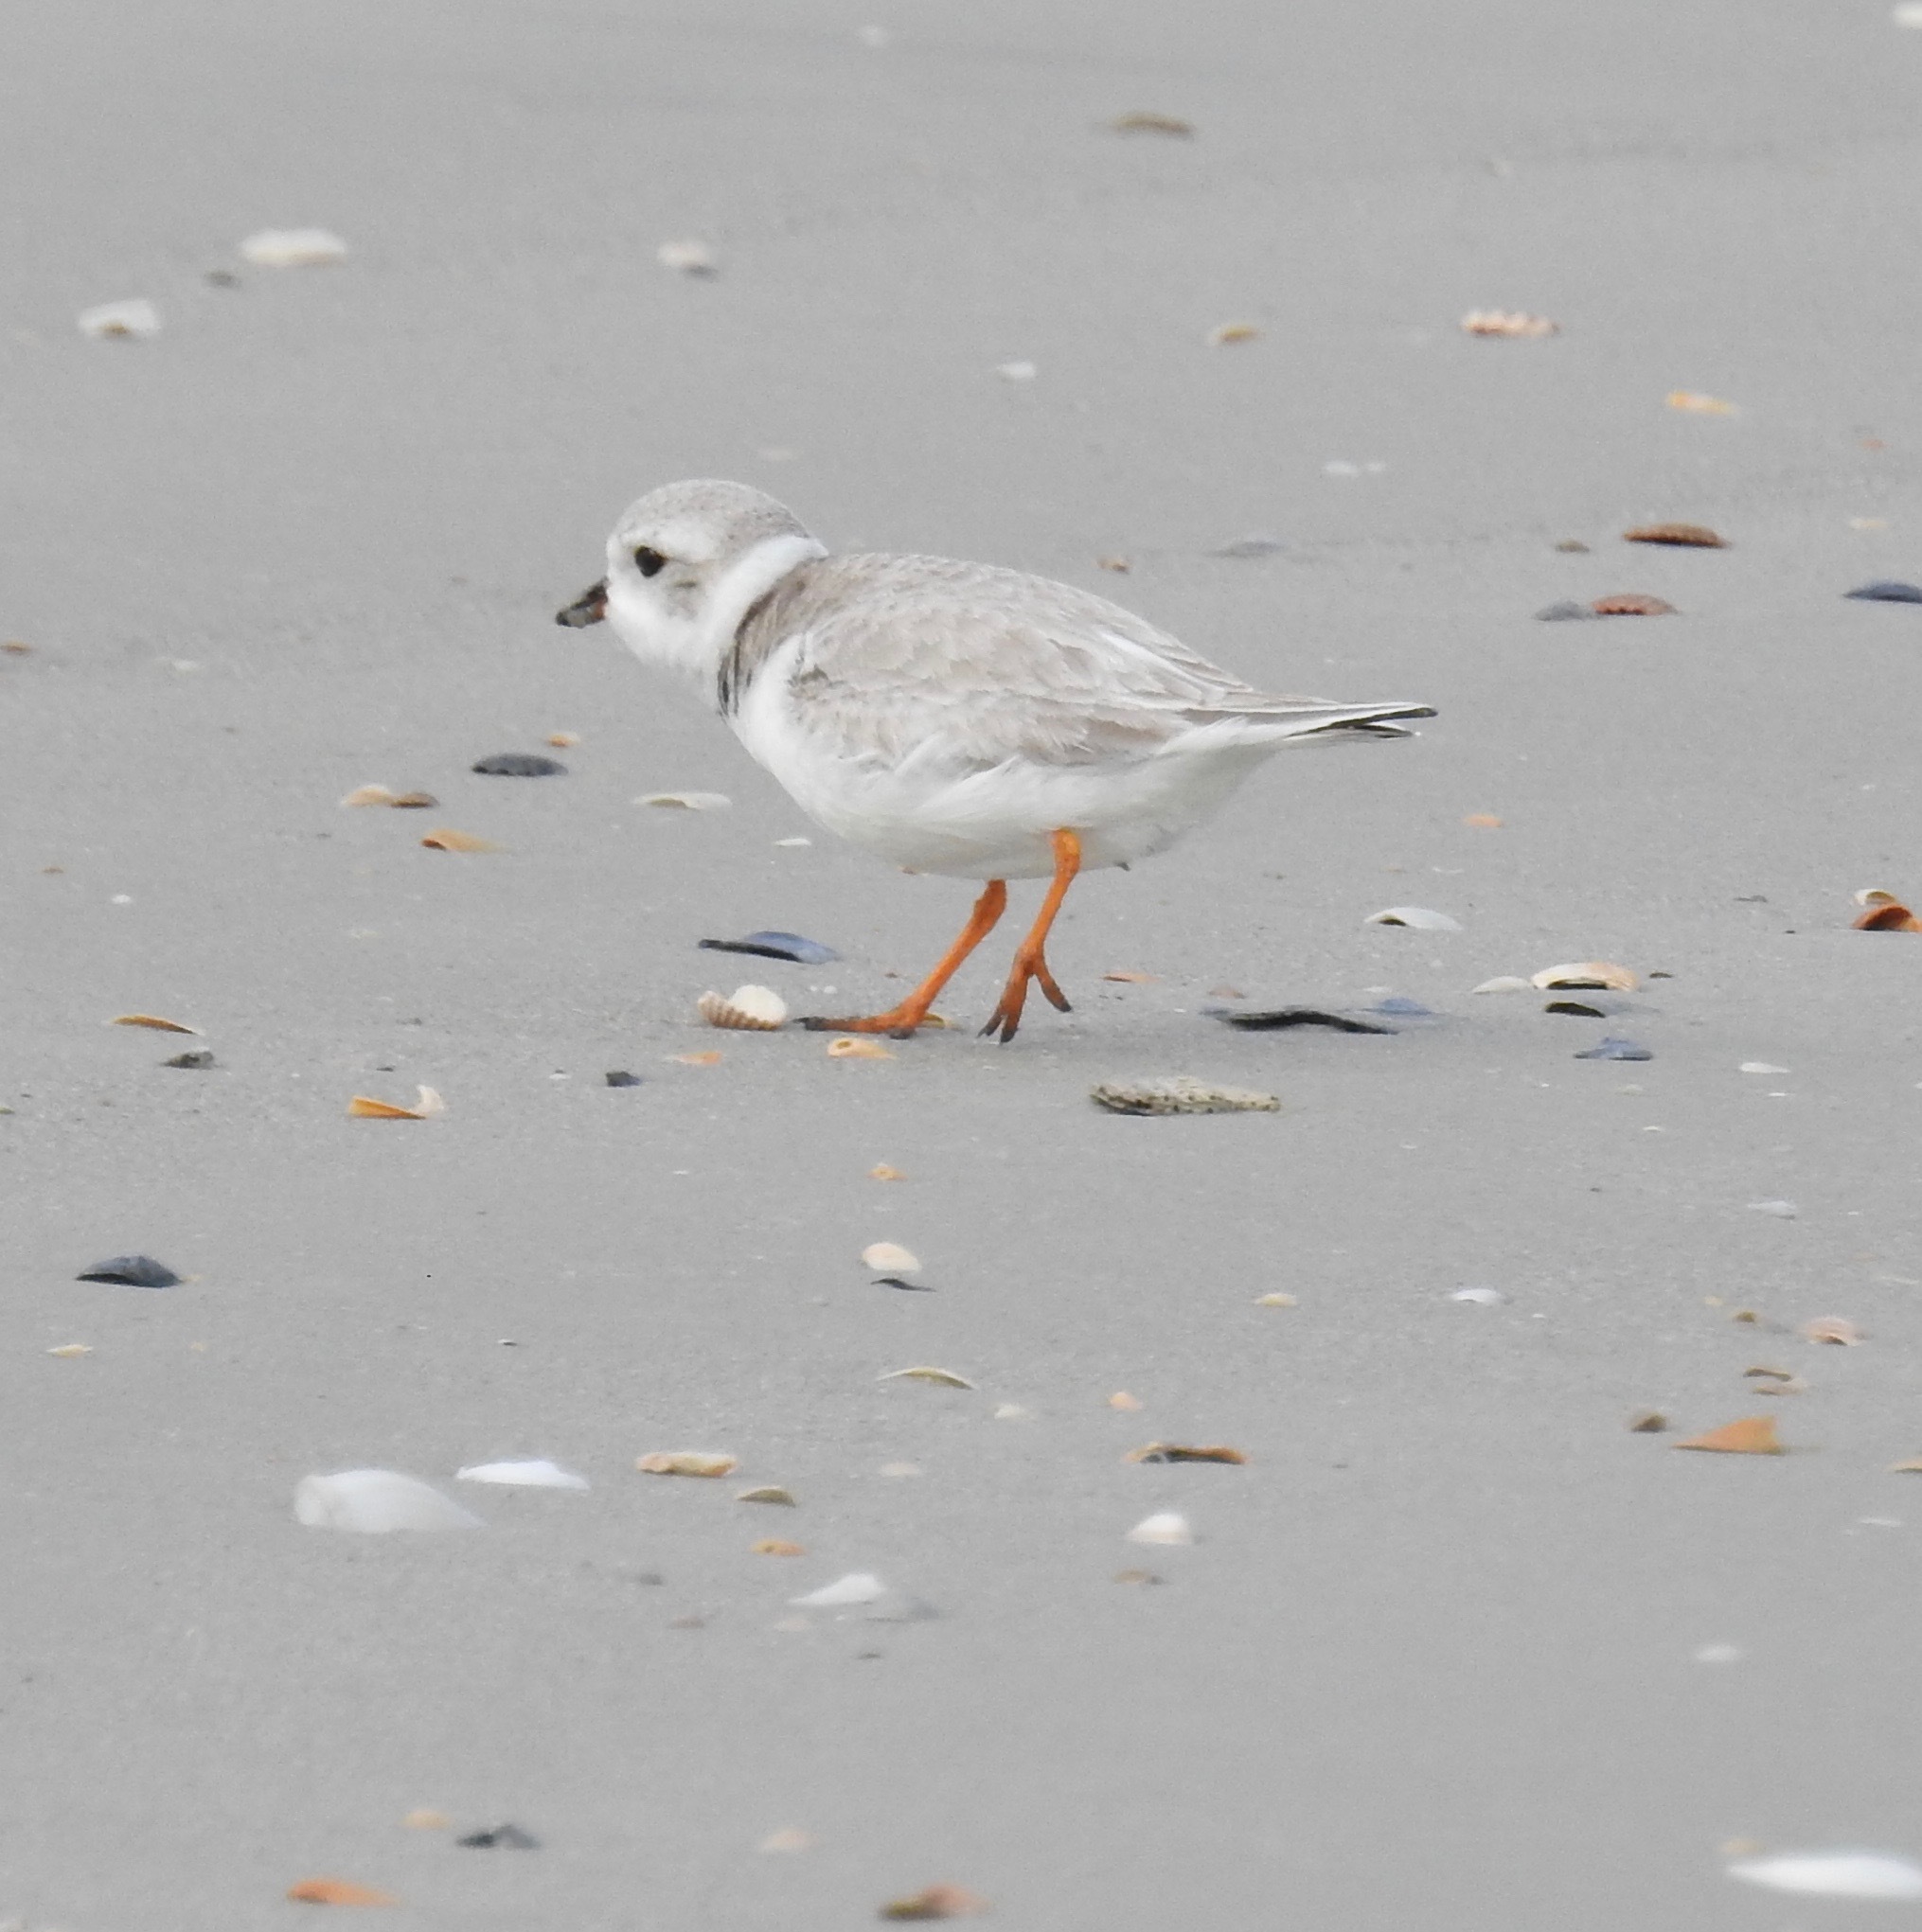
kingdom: Animalia
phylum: Chordata
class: Aves
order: Charadriiformes
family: Charadriidae
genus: Charadrius
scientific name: Charadrius melodus
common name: Piping plover
